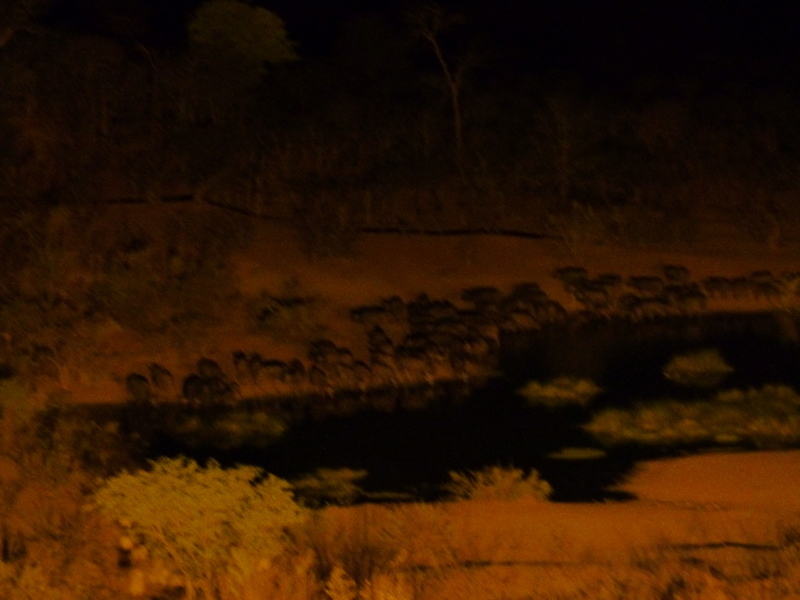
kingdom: Animalia
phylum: Chordata
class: Mammalia
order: Artiodactyla
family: Bovidae
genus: Syncerus
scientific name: Syncerus caffer
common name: African buffalo
